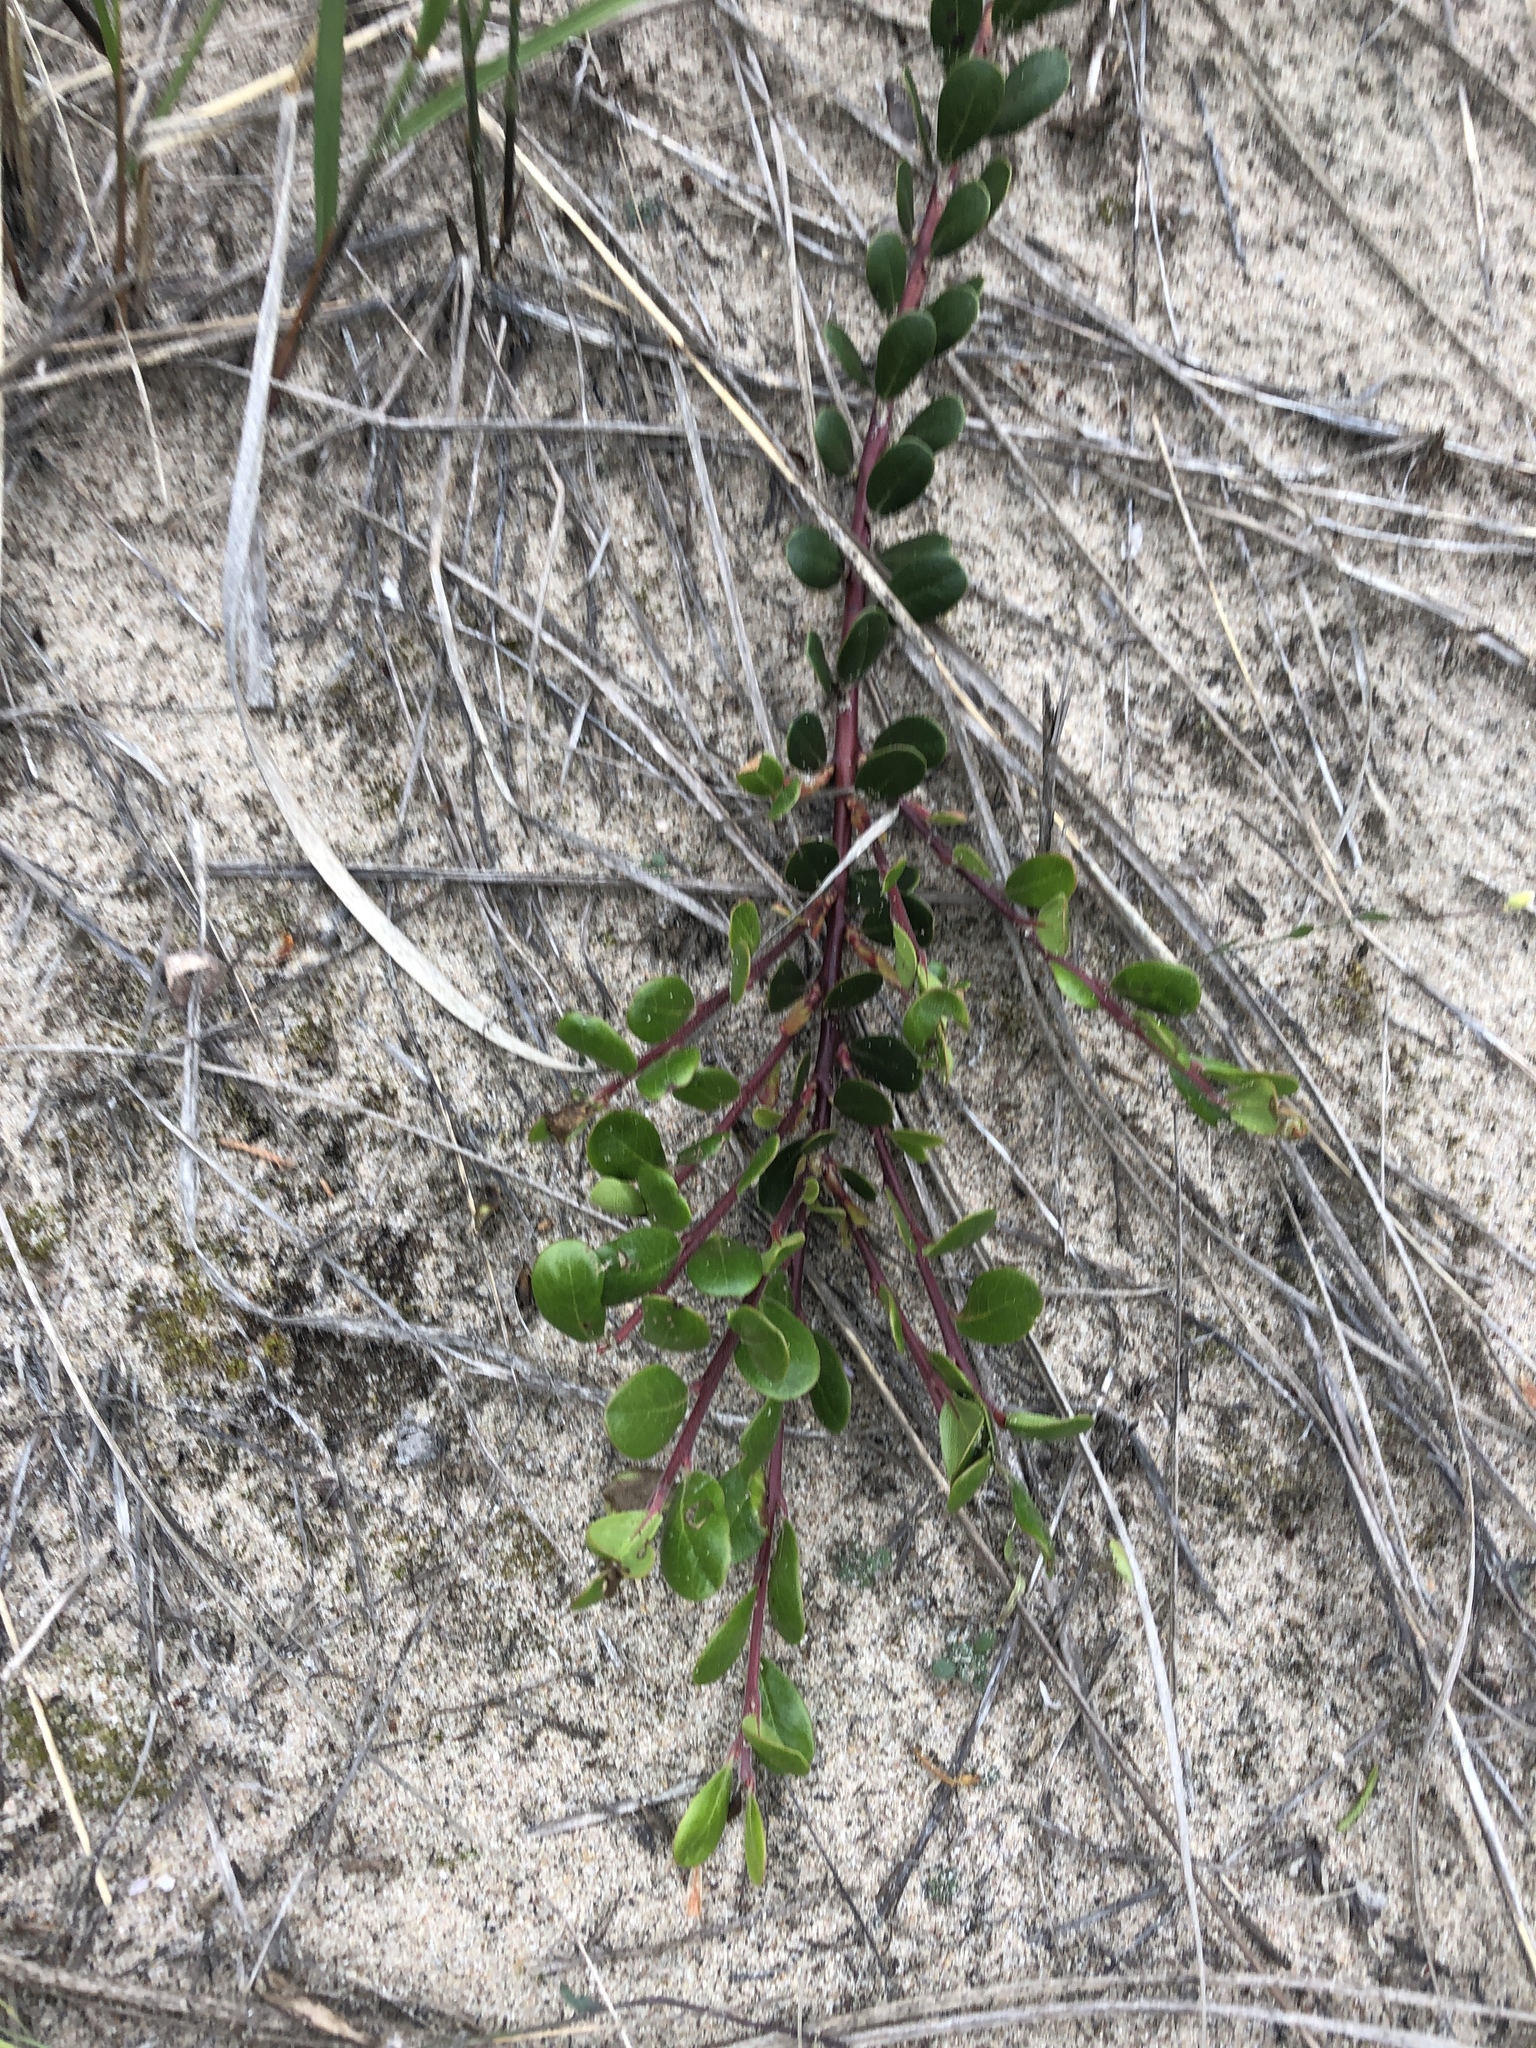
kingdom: Plantae
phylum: Tracheophyta
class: Magnoliopsida
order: Ericales
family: Ericaceae
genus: Arctostaphylos
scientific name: Arctostaphylos uva-ursi
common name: Bearberry
